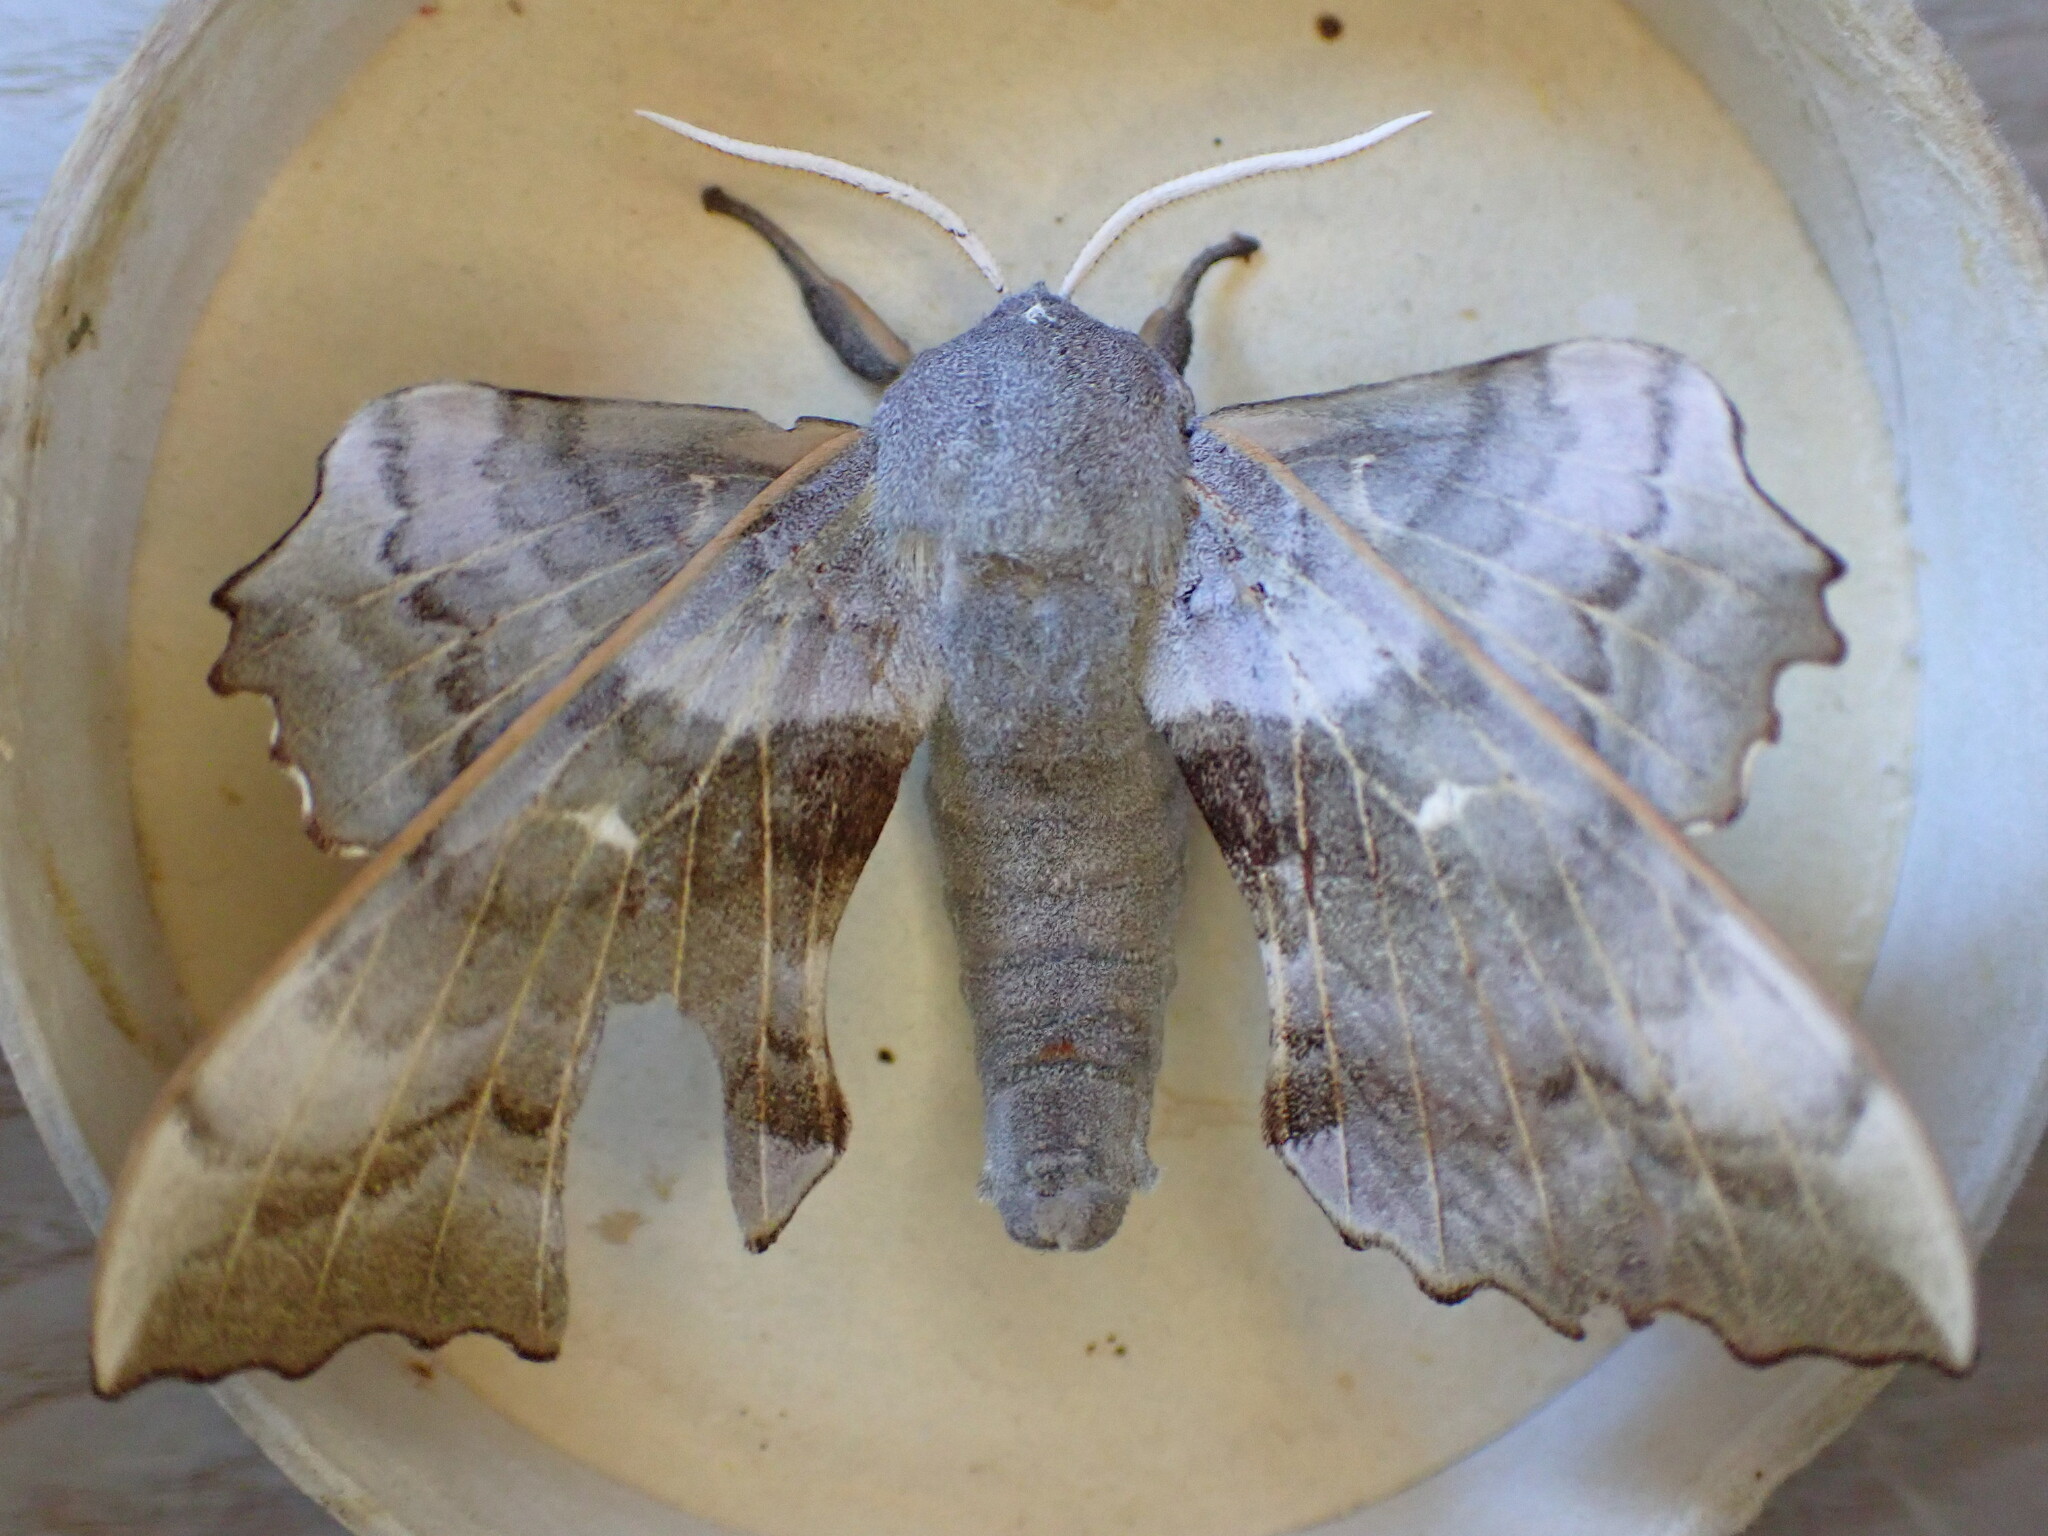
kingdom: Animalia
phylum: Arthropoda
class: Insecta
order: Lepidoptera
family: Sphingidae
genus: Laothoe
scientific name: Laothoe populi
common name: Poplar hawk-moth
